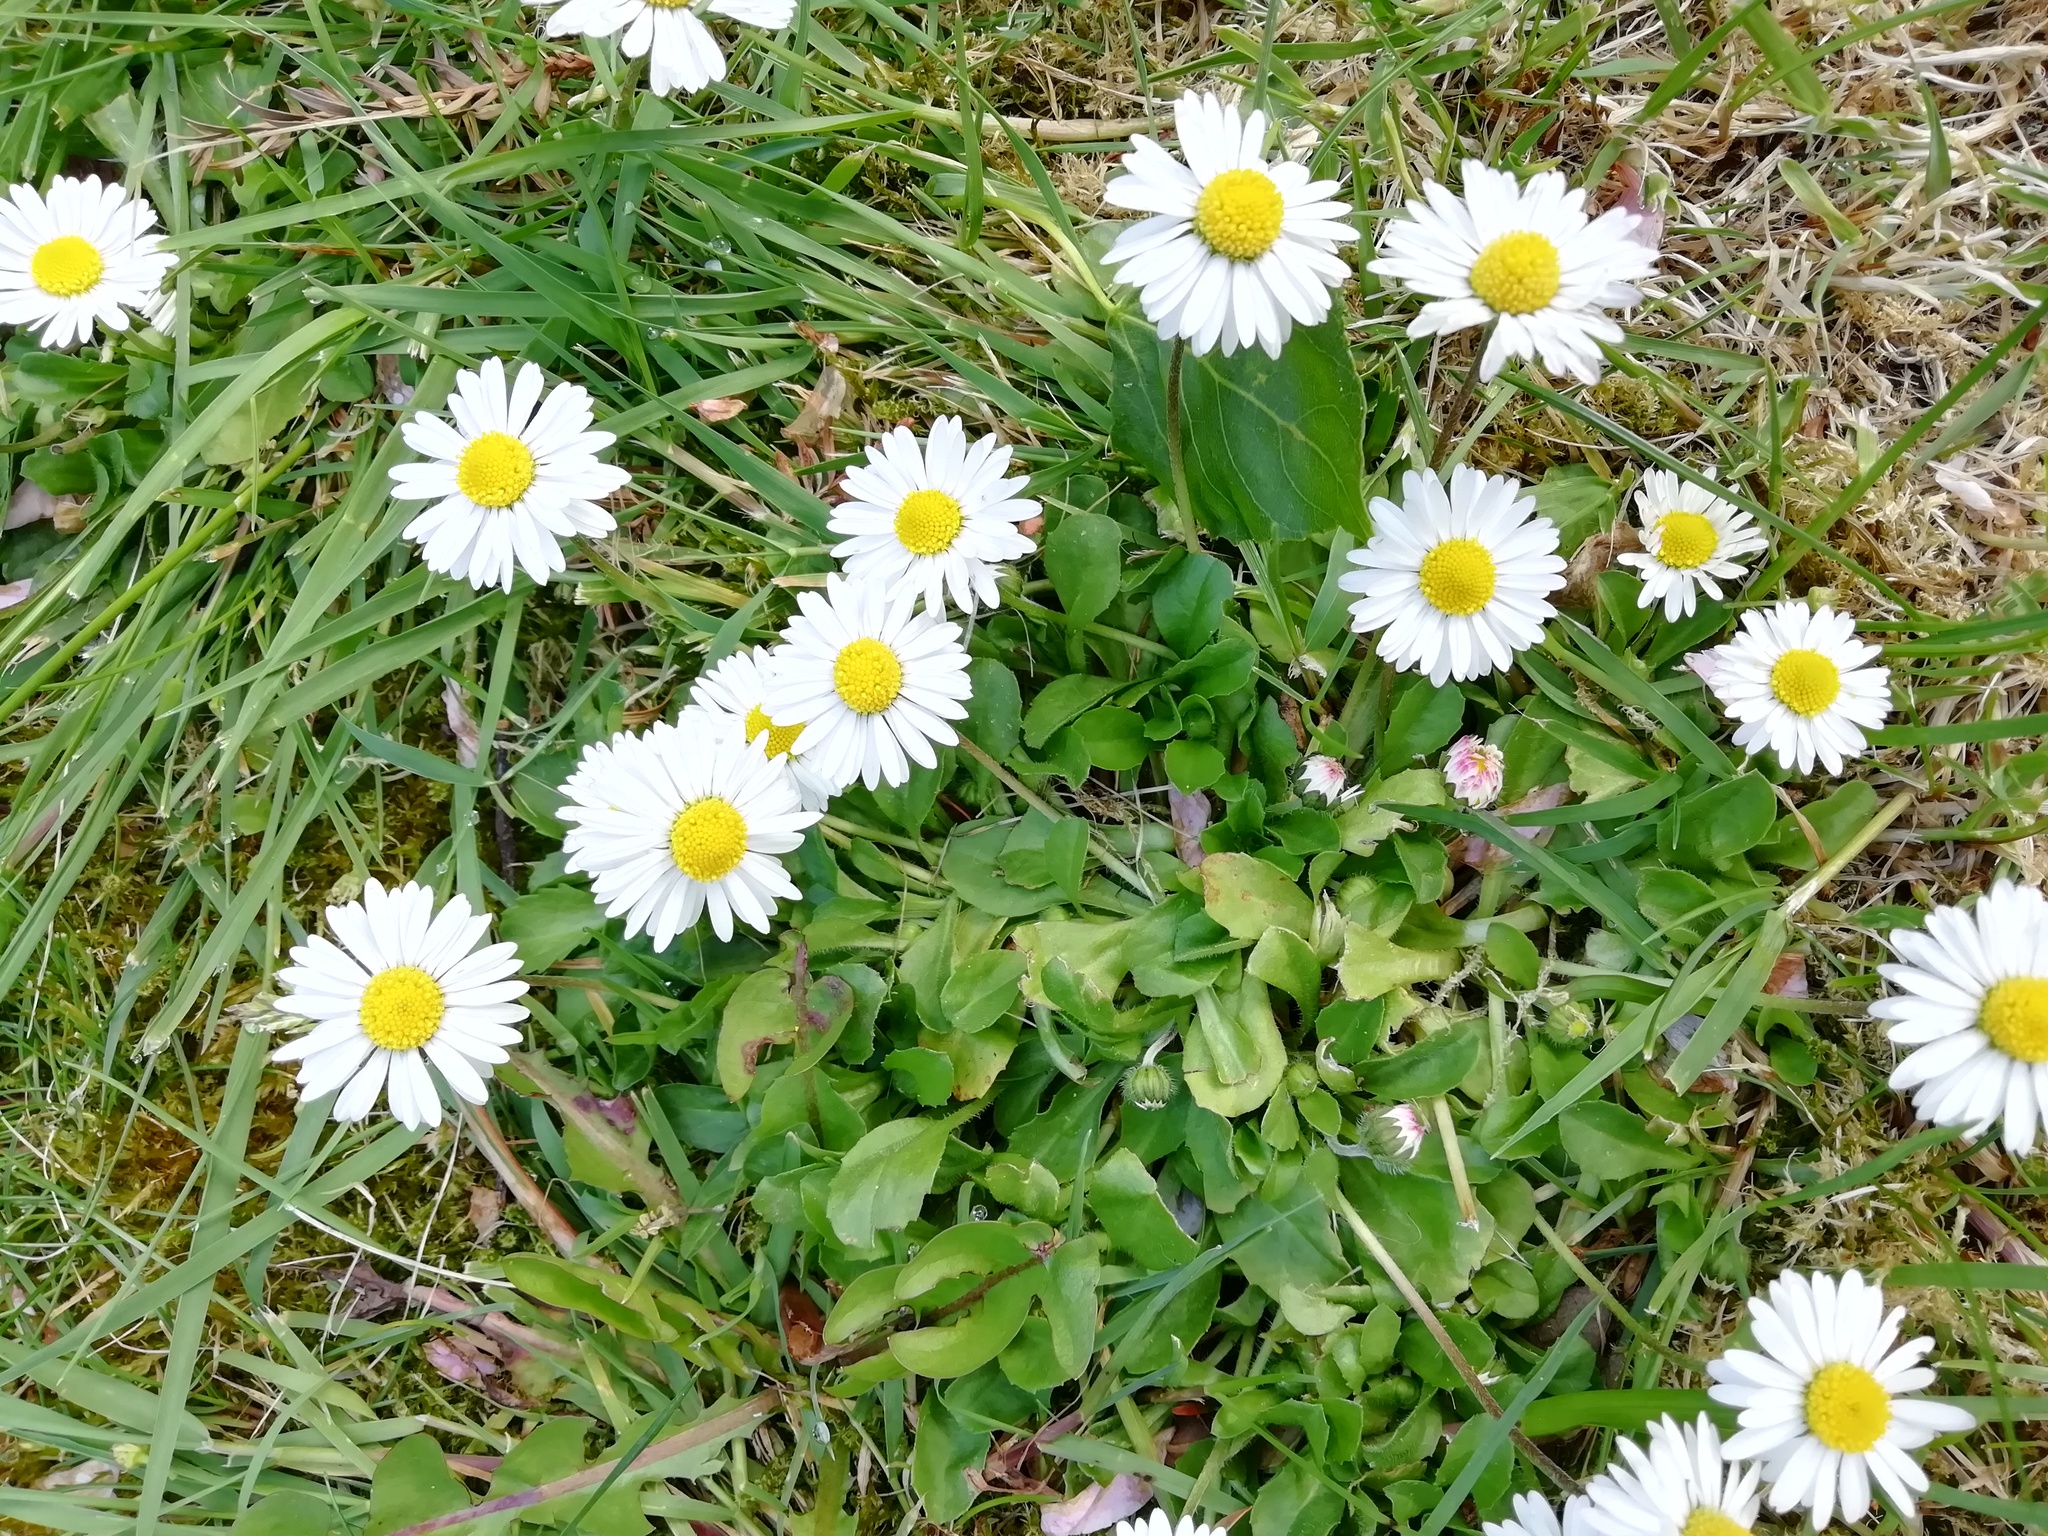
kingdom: Plantae
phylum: Tracheophyta
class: Magnoliopsida
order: Asterales
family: Asteraceae
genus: Bellis
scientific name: Bellis perennis
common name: Lawndaisy
